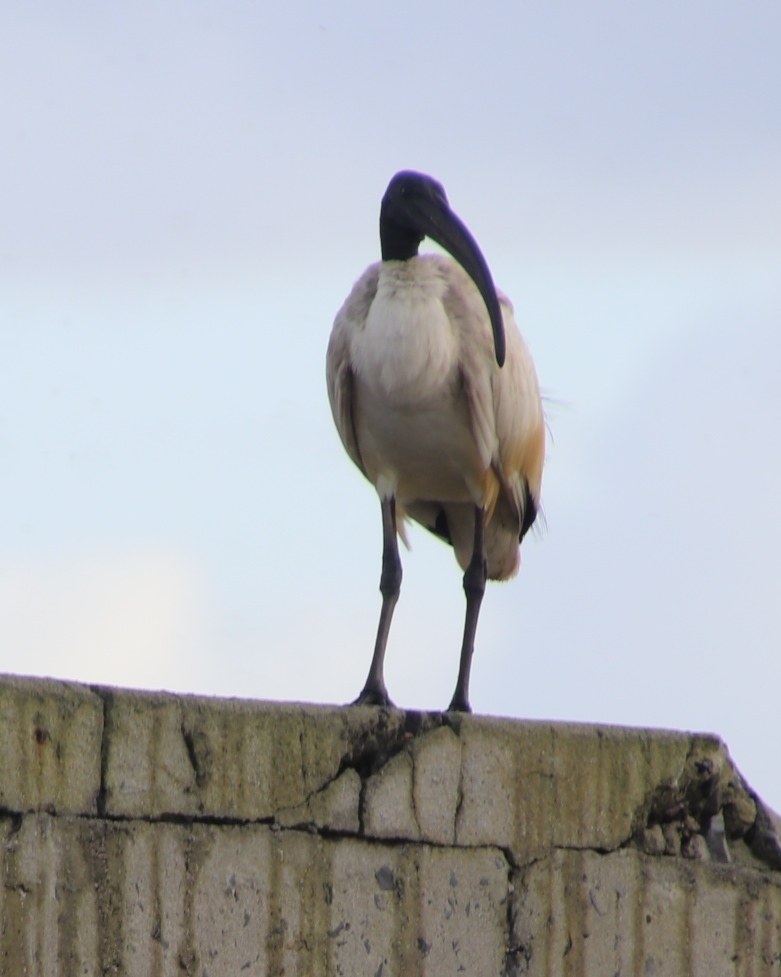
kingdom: Animalia
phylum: Chordata
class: Aves
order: Pelecaniformes
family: Threskiornithidae
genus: Threskiornis
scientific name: Threskiornis aethiopicus
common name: Sacred ibis
